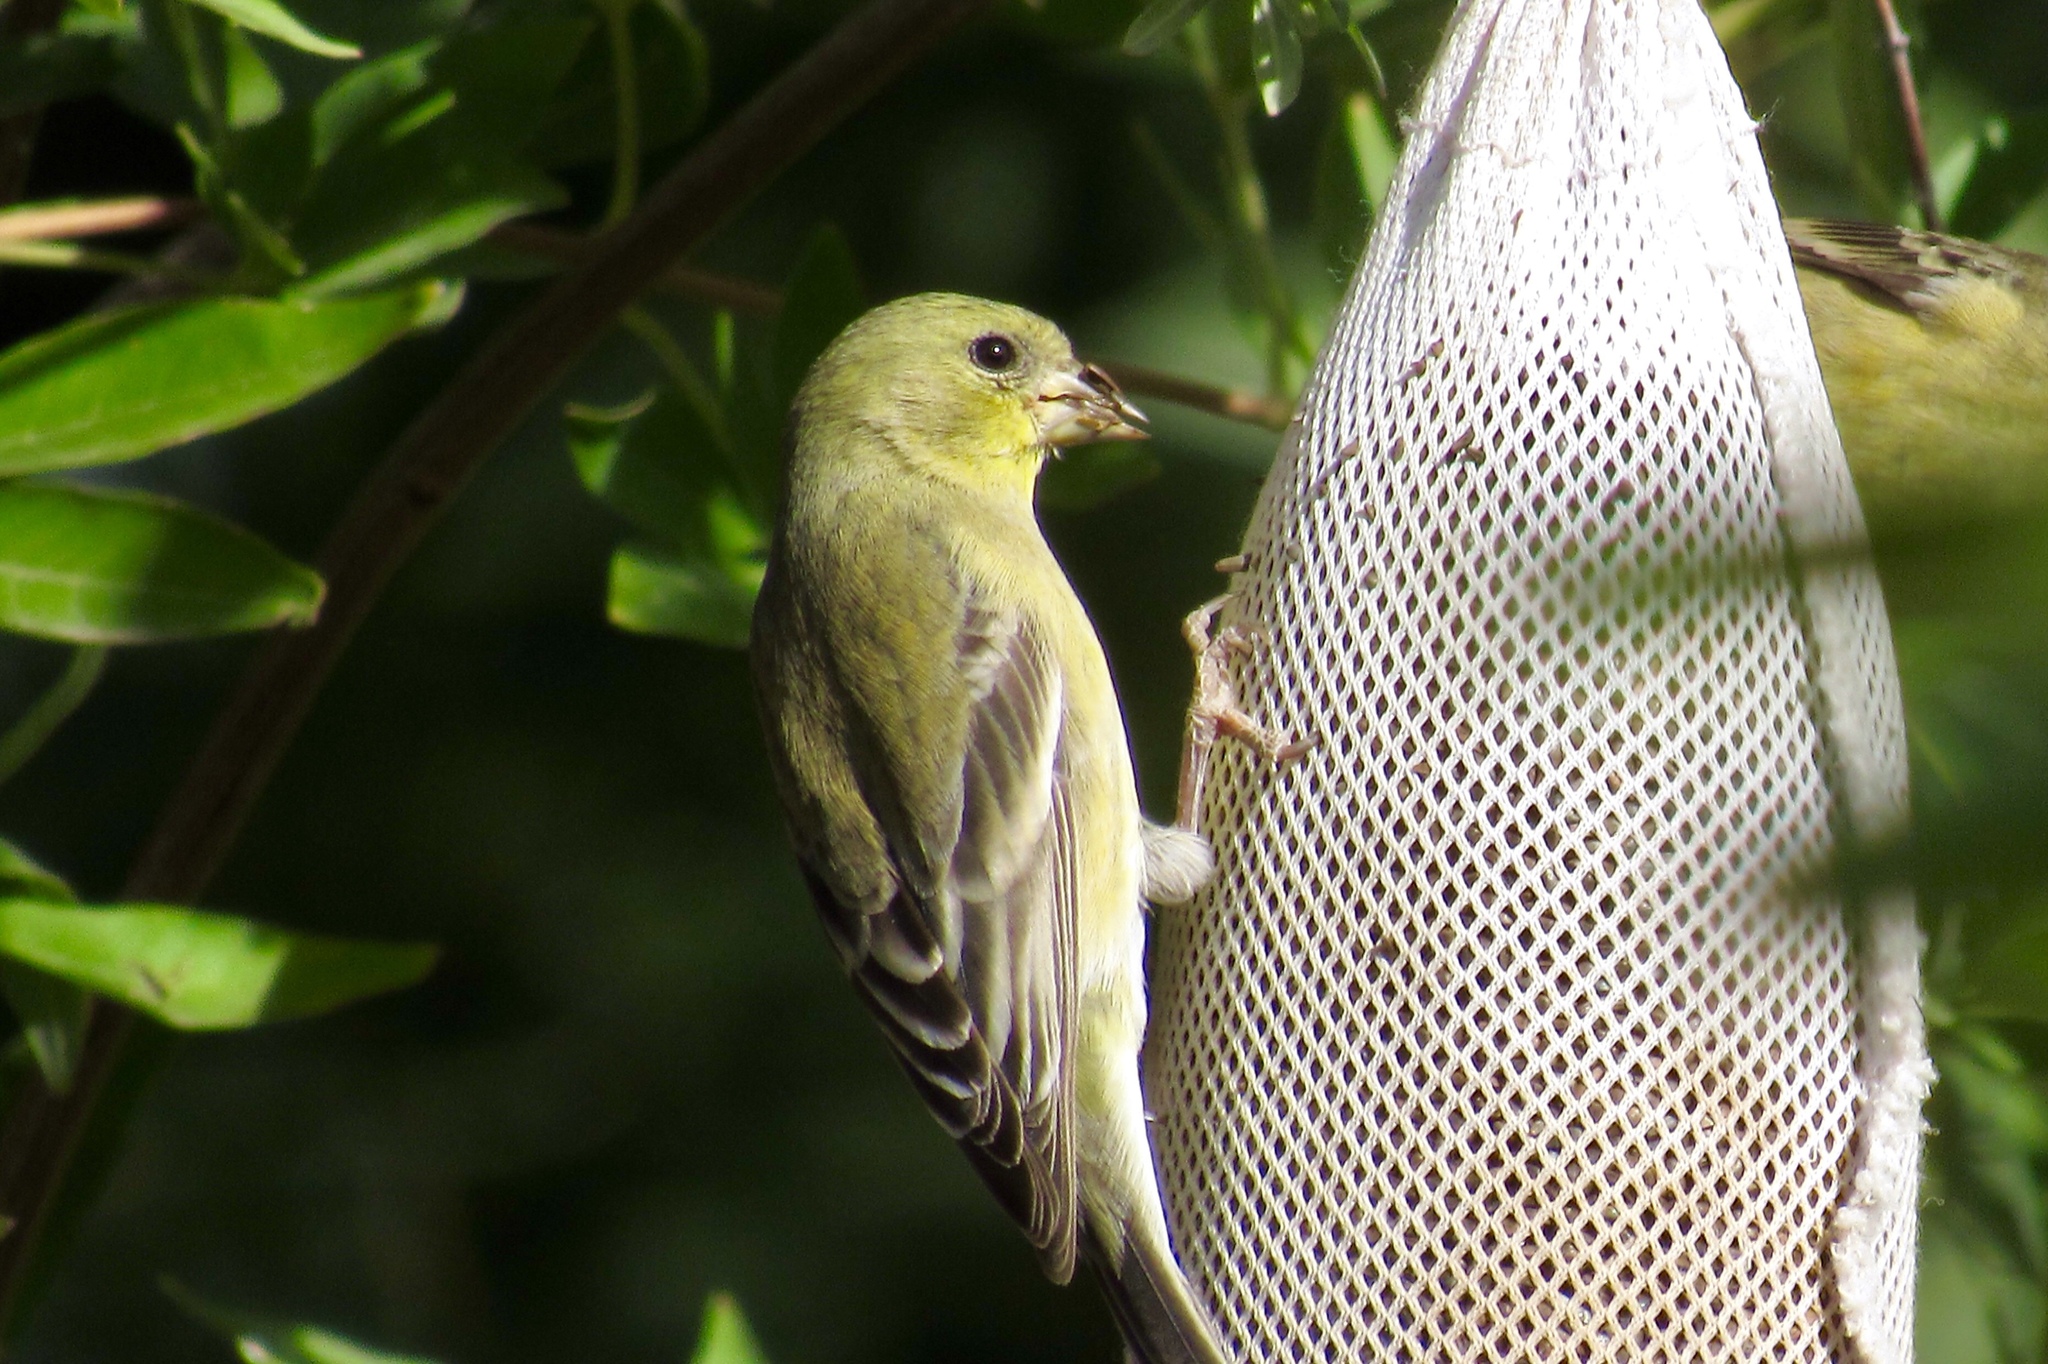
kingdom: Animalia
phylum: Chordata
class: Aves
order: Passeriformes
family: Fringillidae
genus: Spinus
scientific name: Spinus psaltria
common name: Lesser goldfinch
